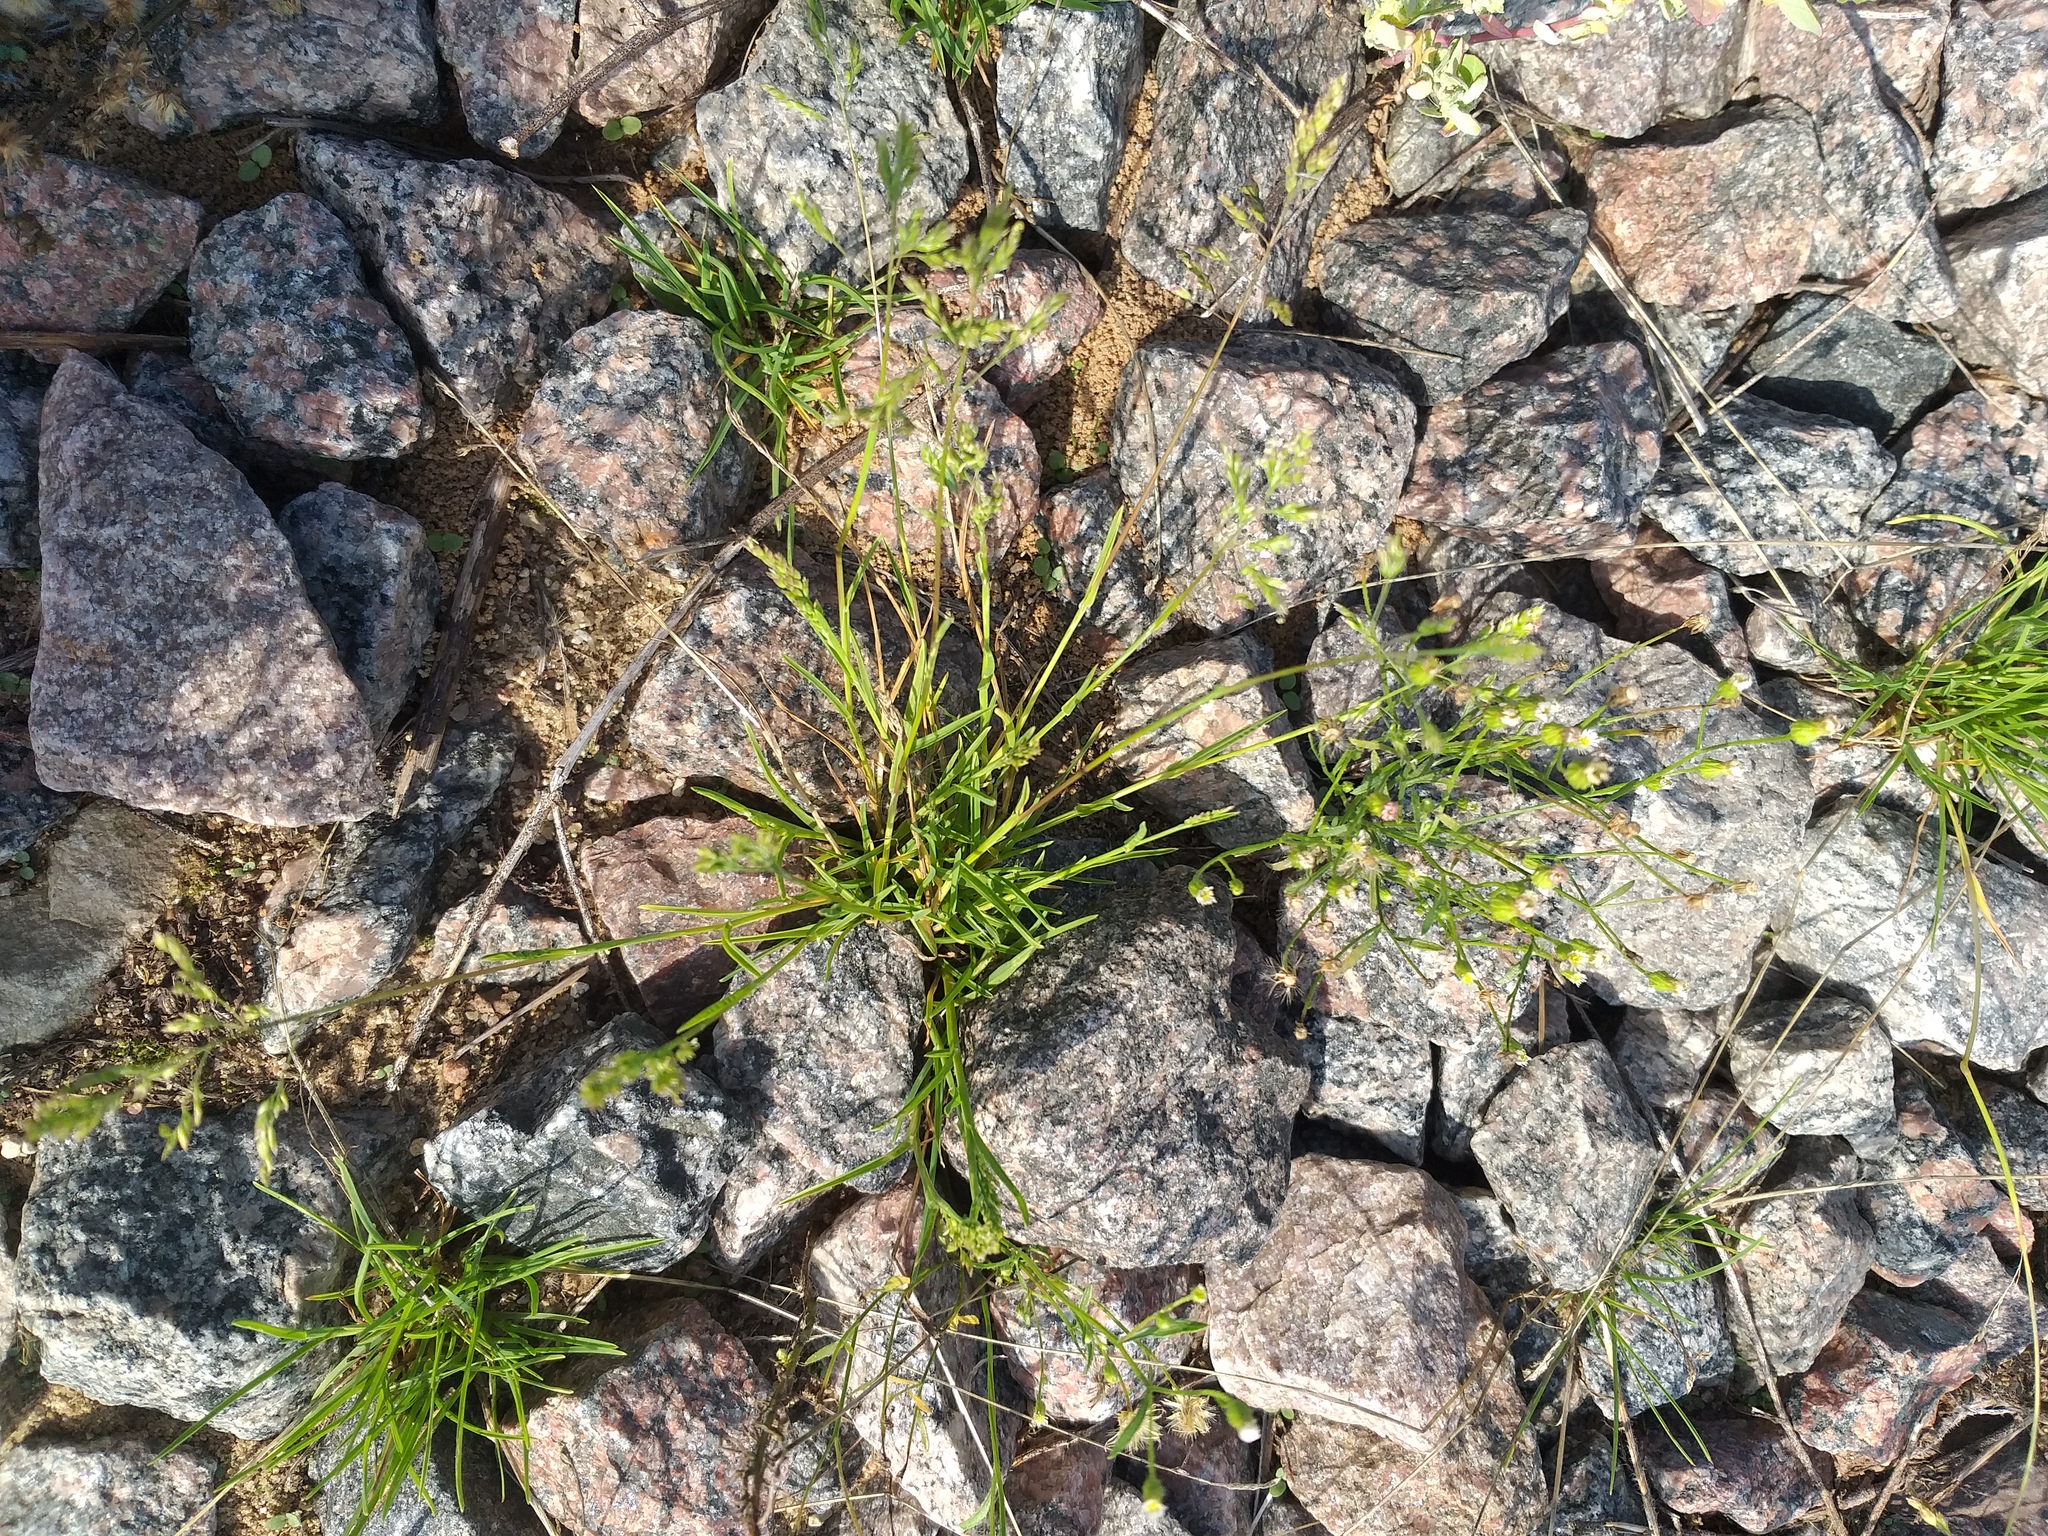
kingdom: Plantae
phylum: Tracheophyta
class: Liliopsida
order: Poales
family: Poaceae
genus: Poa
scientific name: Poa compressa
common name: Canada bluegrass
